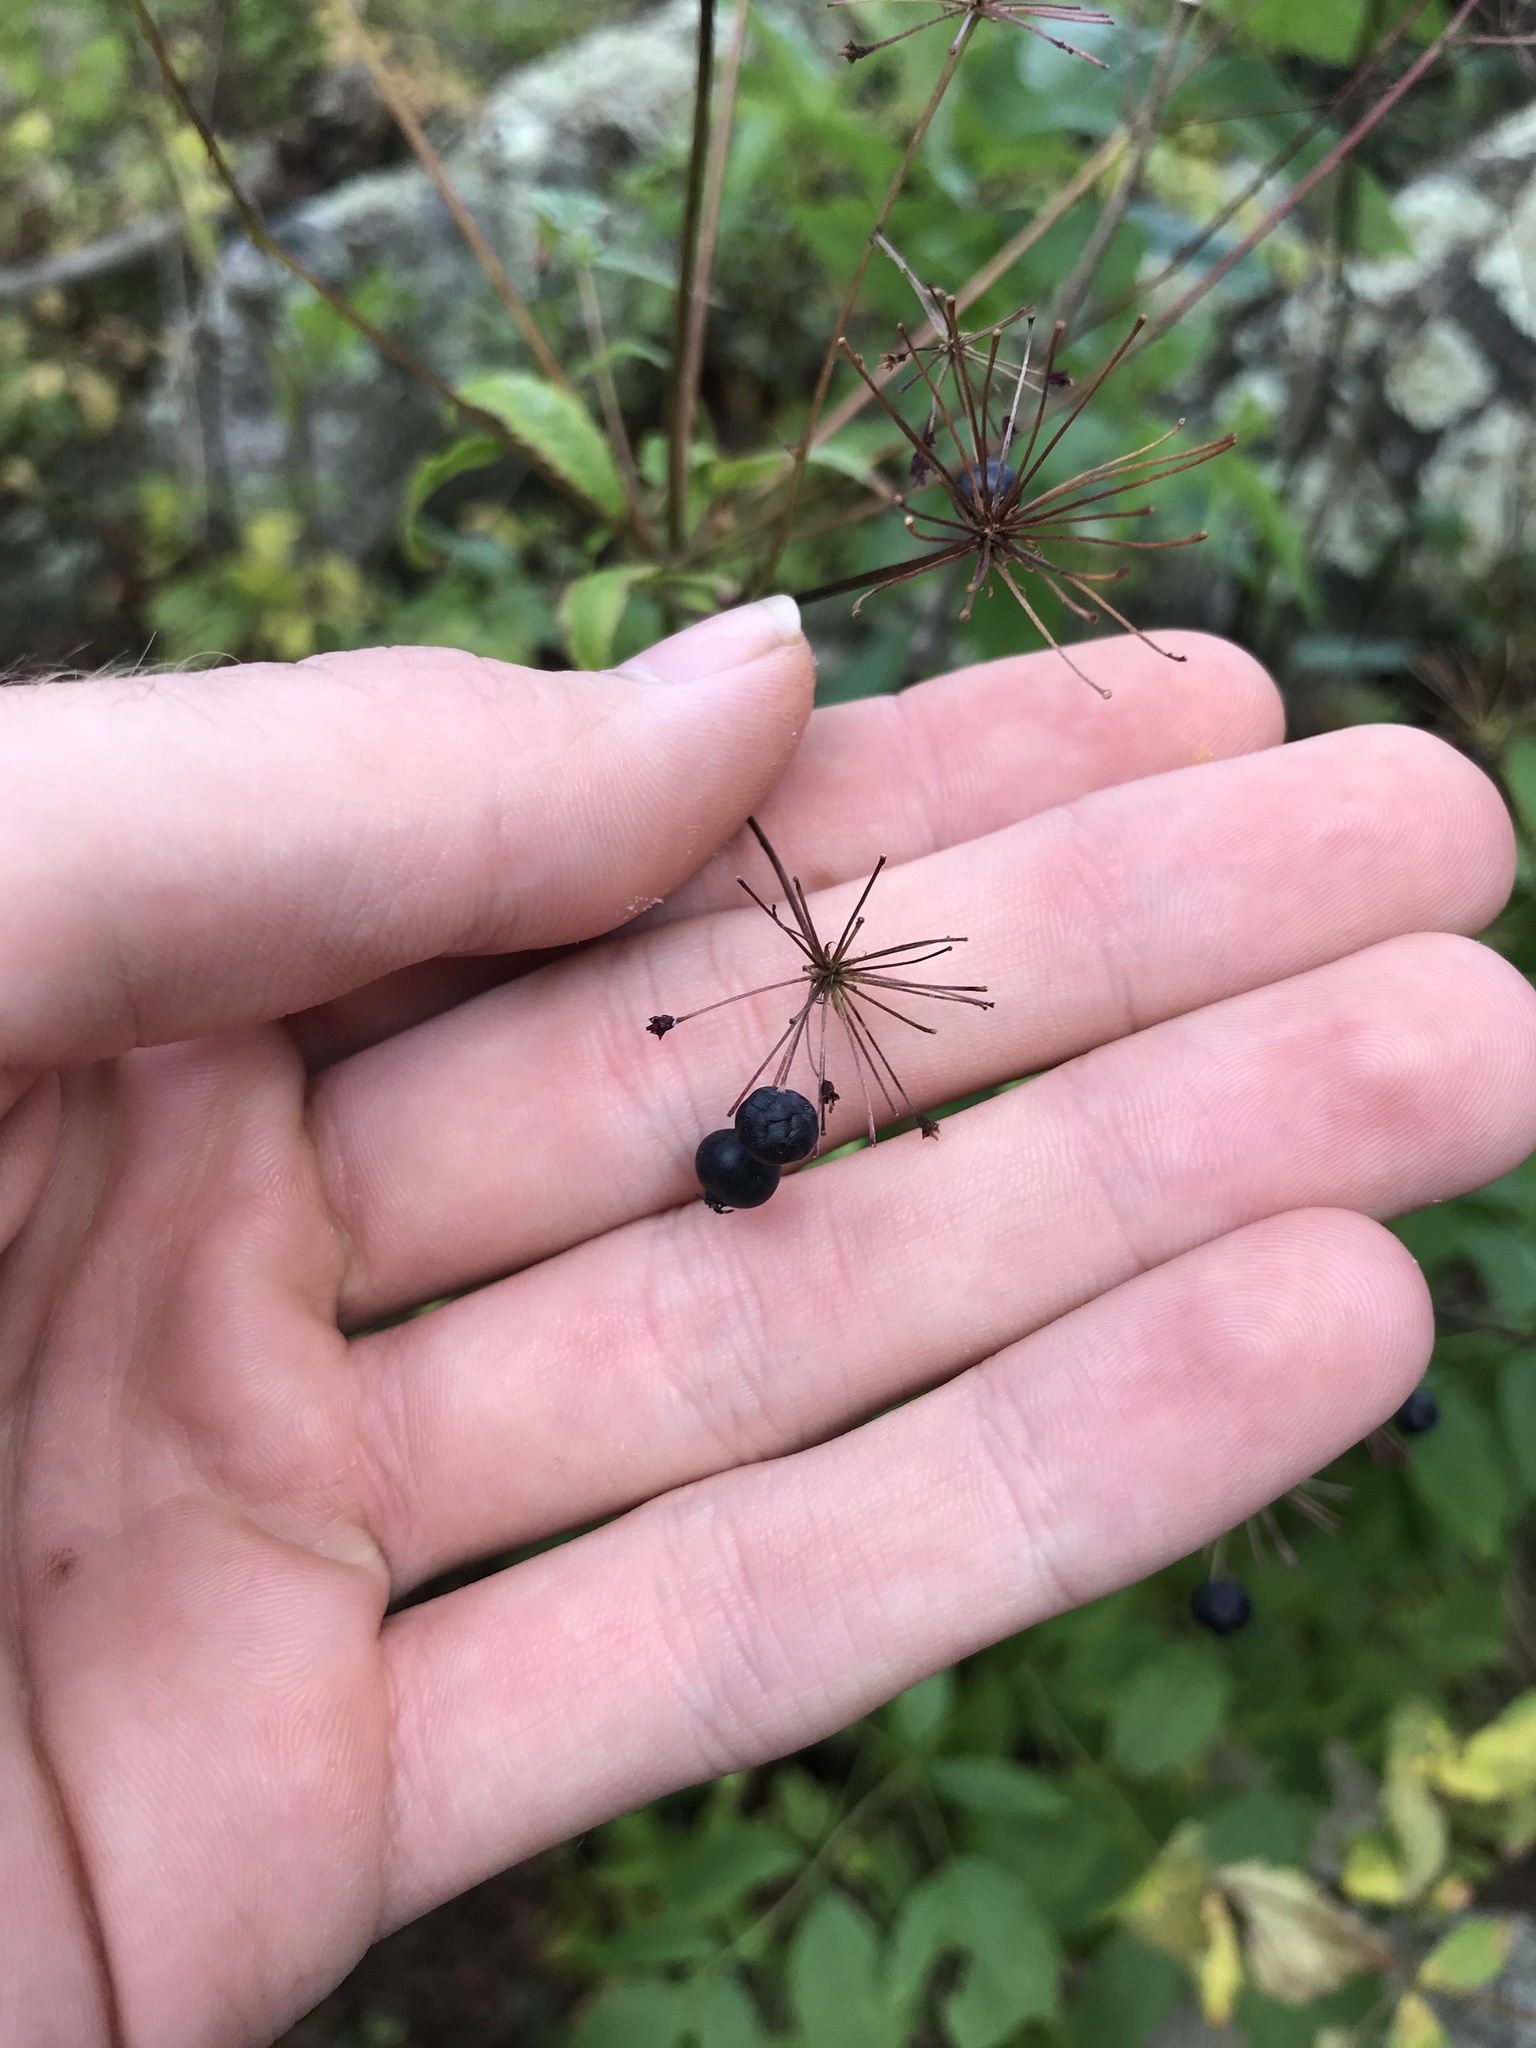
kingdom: Plantae
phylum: Tracheophyta
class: Magnoliopsida
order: Apiales
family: Araliaceae
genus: Aralia
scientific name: Aralia hispida
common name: Bristly sarsaparilla
